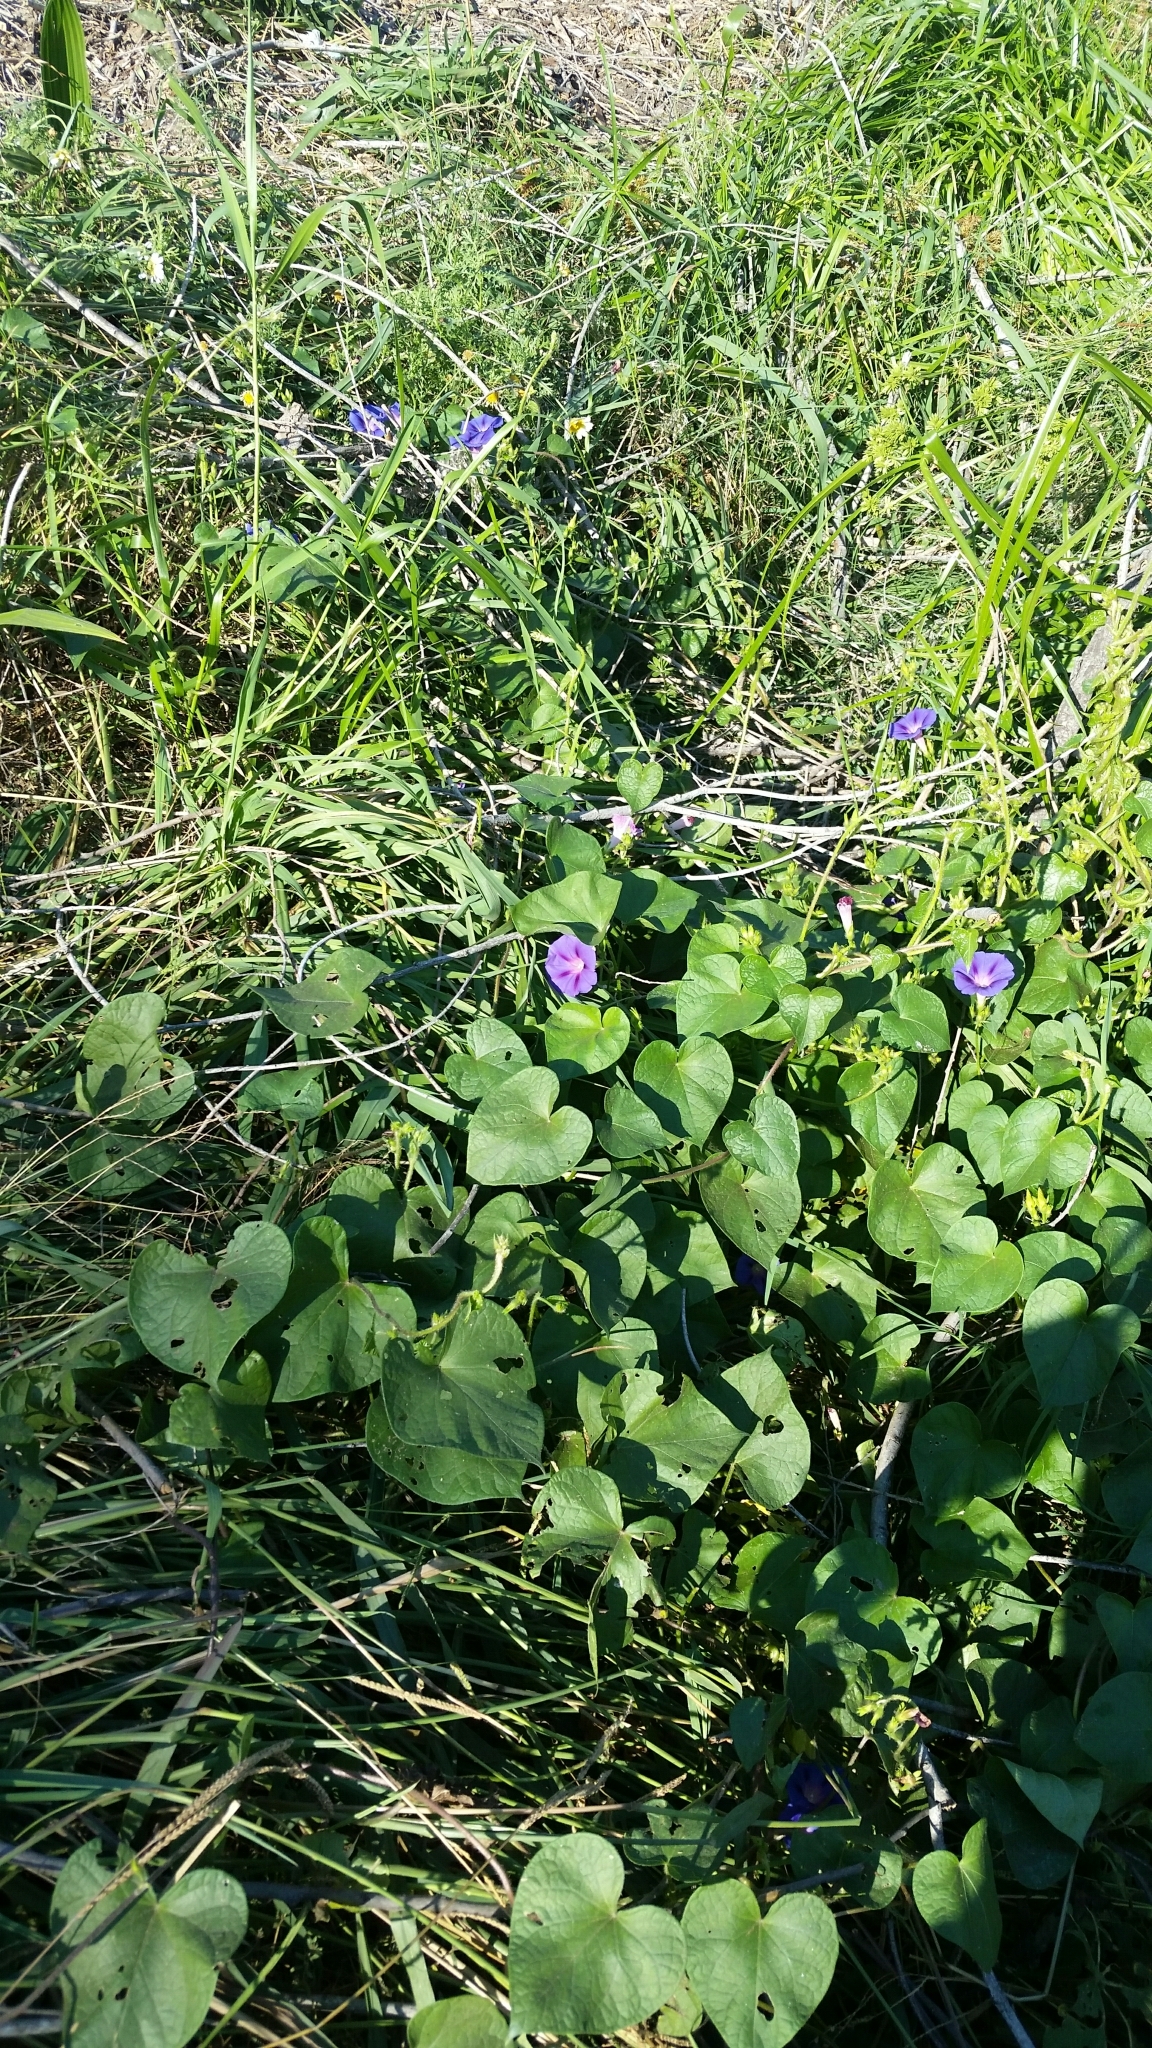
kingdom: Plantae
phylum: Tracheophyta
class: Magnoliopsida
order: Solanales
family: Convolvulaceae
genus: Ipomoea
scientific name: Ipomoea purpurea
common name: Common morning-glory
